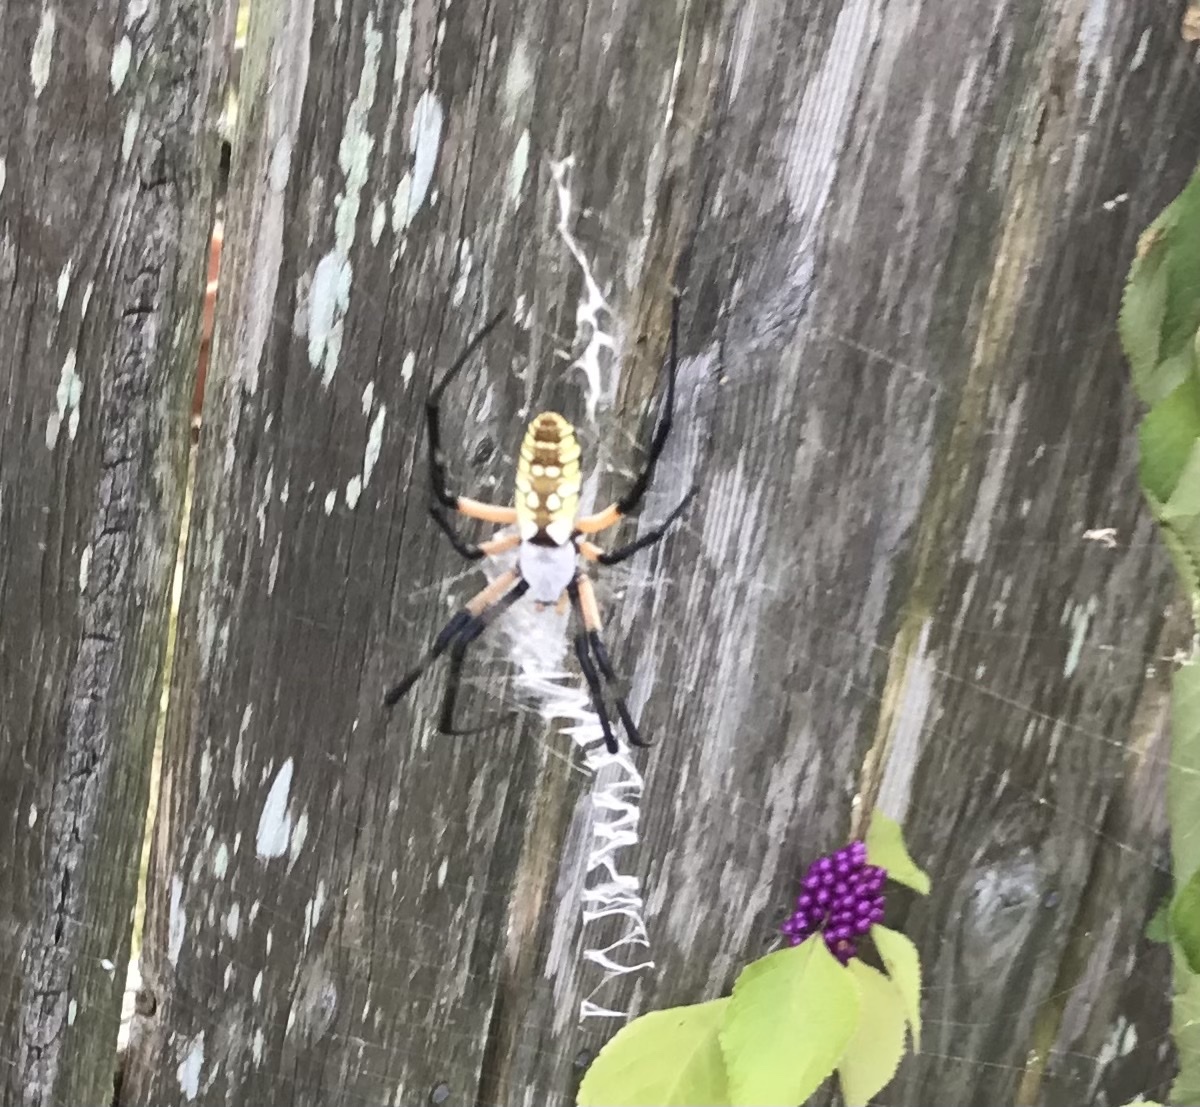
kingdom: Animalia
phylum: Arthropoda
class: Arachnida
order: Araneae
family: Araneidae
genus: Argiope
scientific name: Argiope aurantia
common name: Orb weavers
